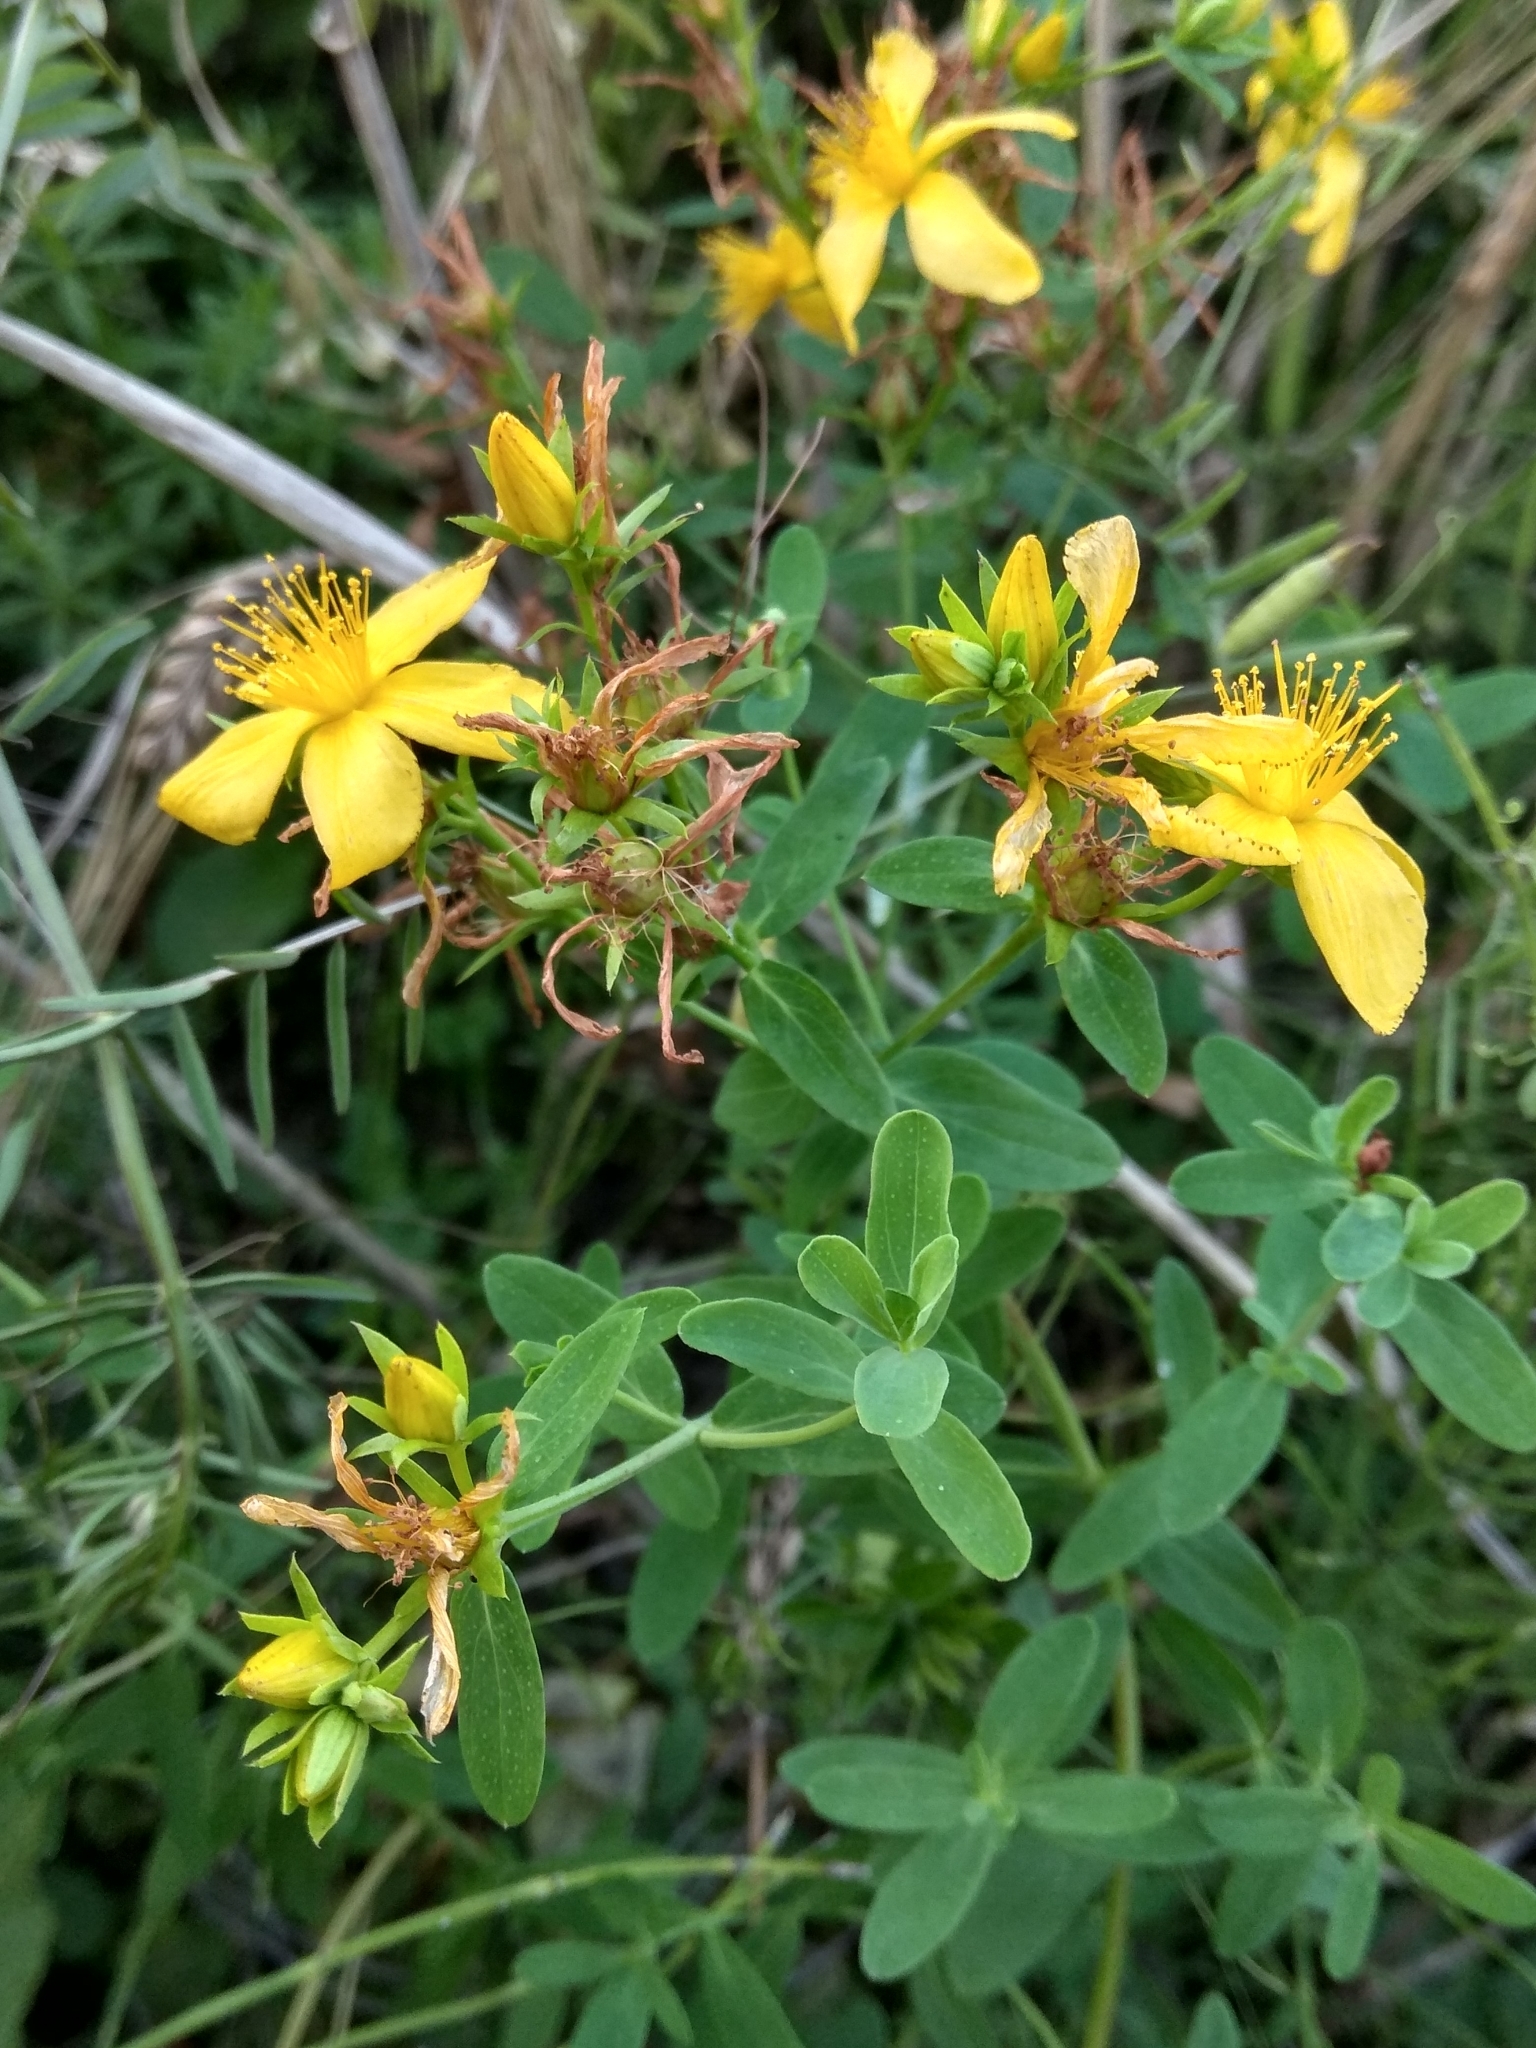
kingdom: Plantae
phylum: Tracheophyta
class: Magnoliopsida
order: Malpighiales
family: Hypericaceae
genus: Hypericum
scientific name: Hypericum perforatum
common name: Common st. johnswort
